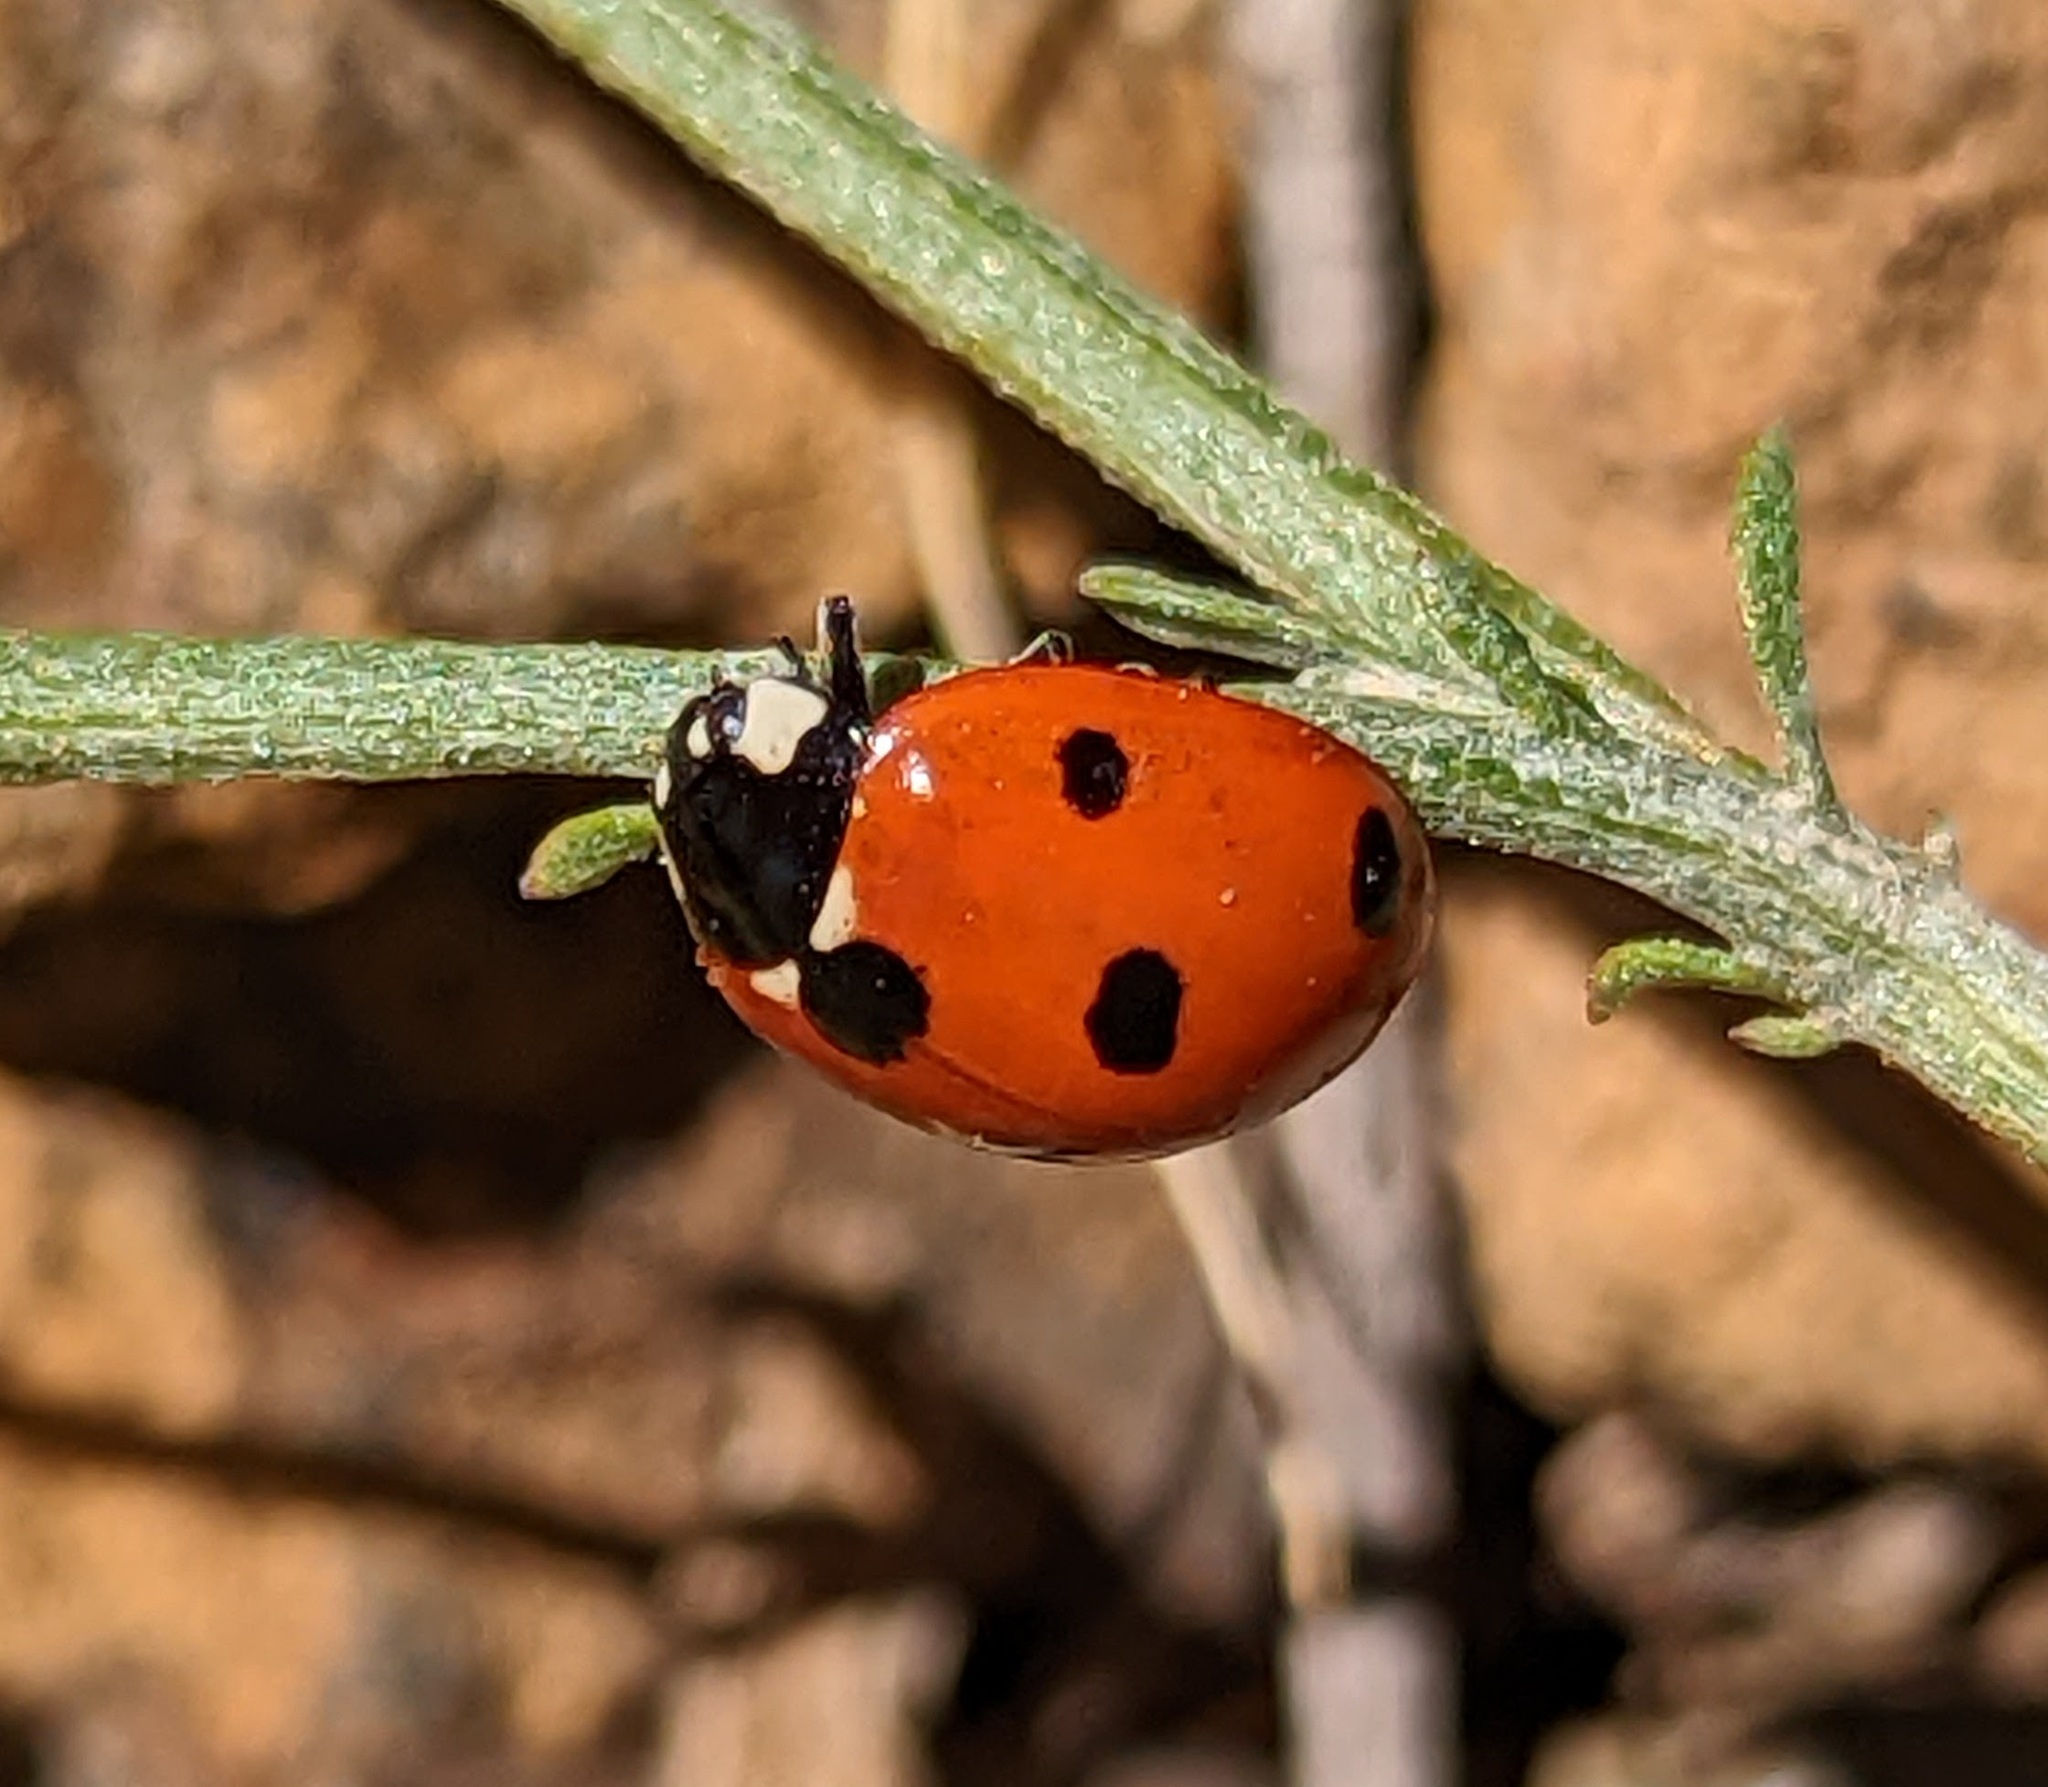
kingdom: Animalia
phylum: Arthropoda
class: Insecta
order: Coleoptera
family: Coccinellidae
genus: Coccinella
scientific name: Coccinella septempunctata
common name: Sevenspotted lady beetle
